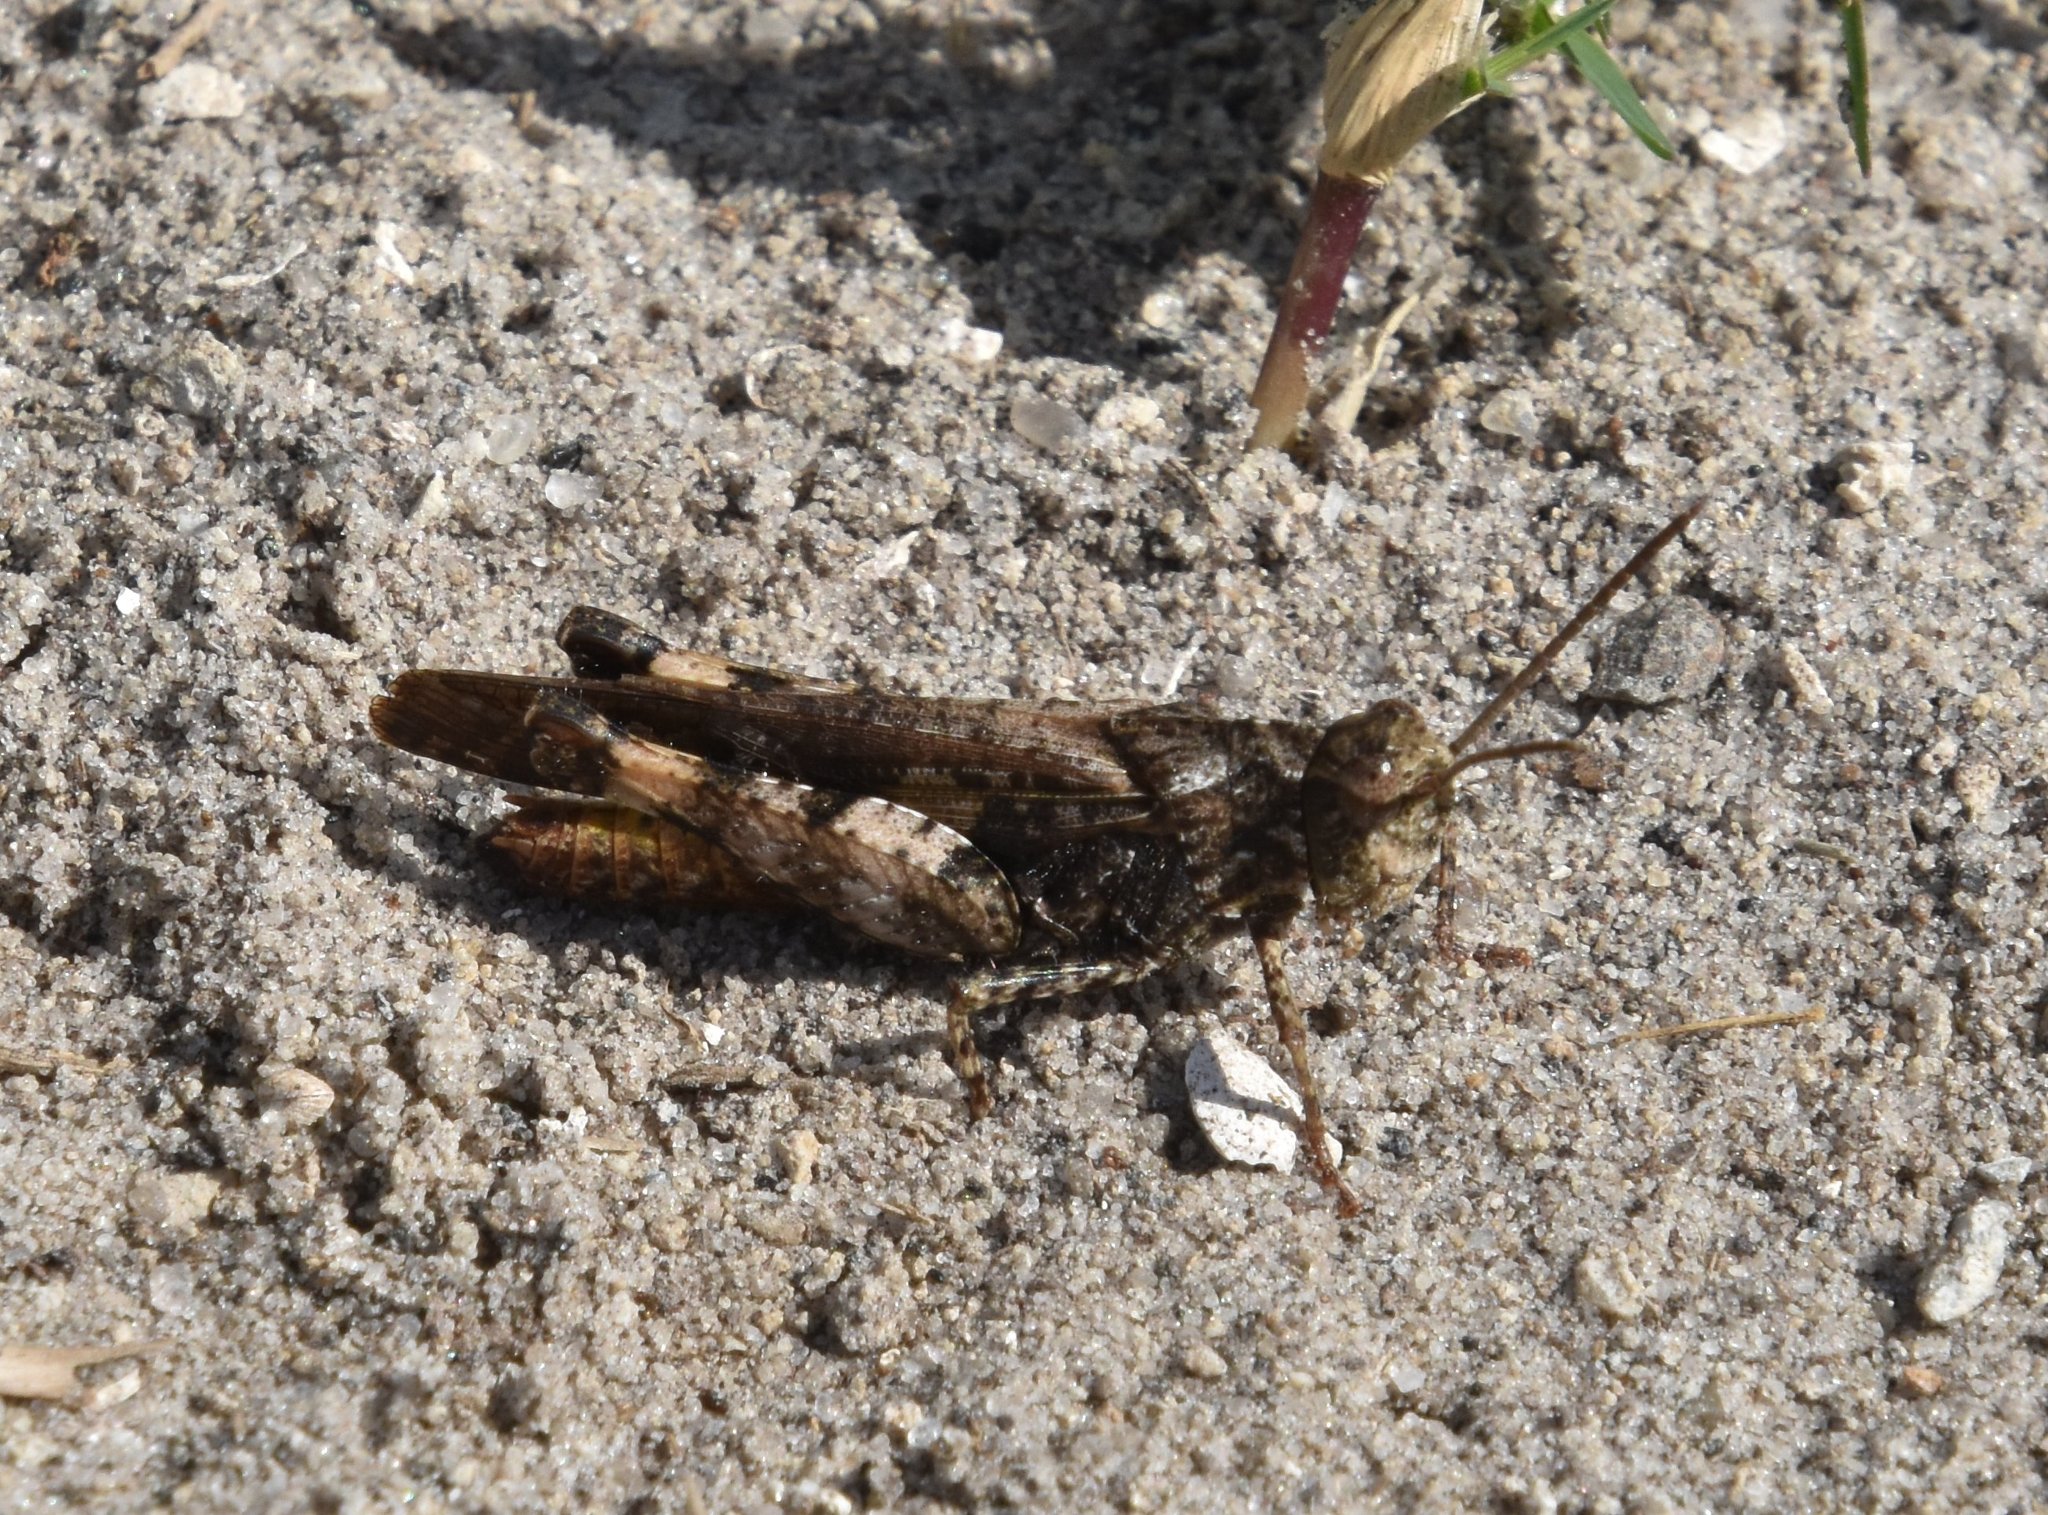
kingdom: Animalia
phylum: Arthropoda
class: Insecta
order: Orthoptera
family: Acrididae
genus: Chortophaga
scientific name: Chortophaga australior
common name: Southern green-striped grasshopper
